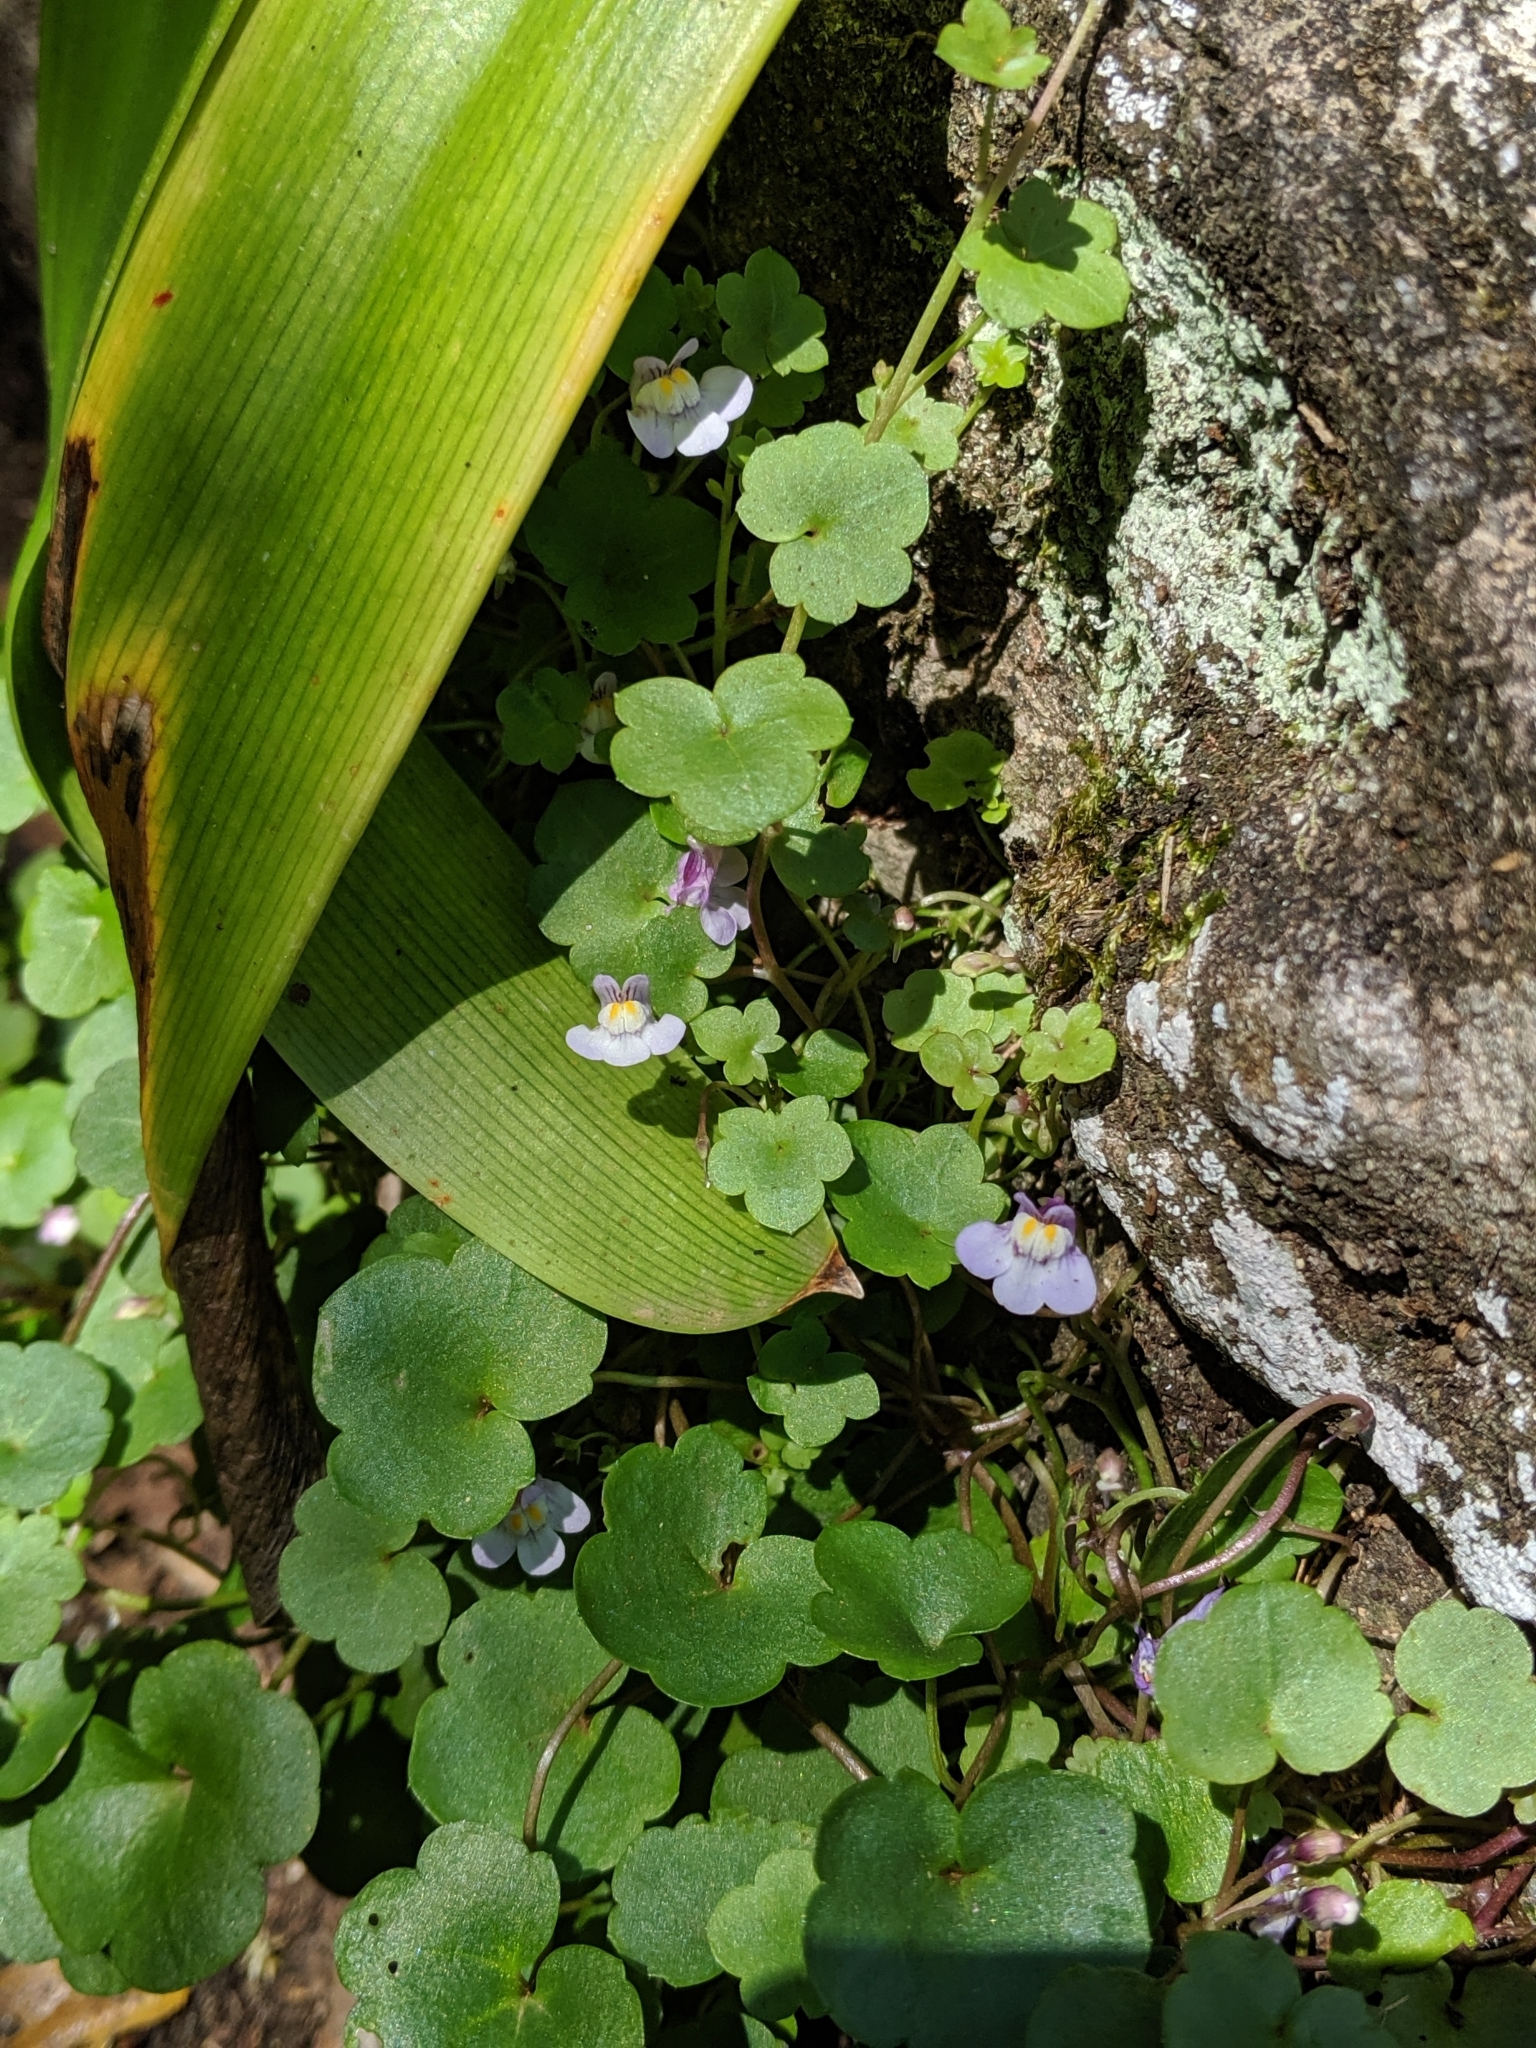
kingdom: Plantae
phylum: Tracheophyta
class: Magnoliopsida
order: Lamiales
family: Plantaginaceae
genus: Cymbalaria
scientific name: Cymbalaria muralis
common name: Ivy-leaved toadflax
